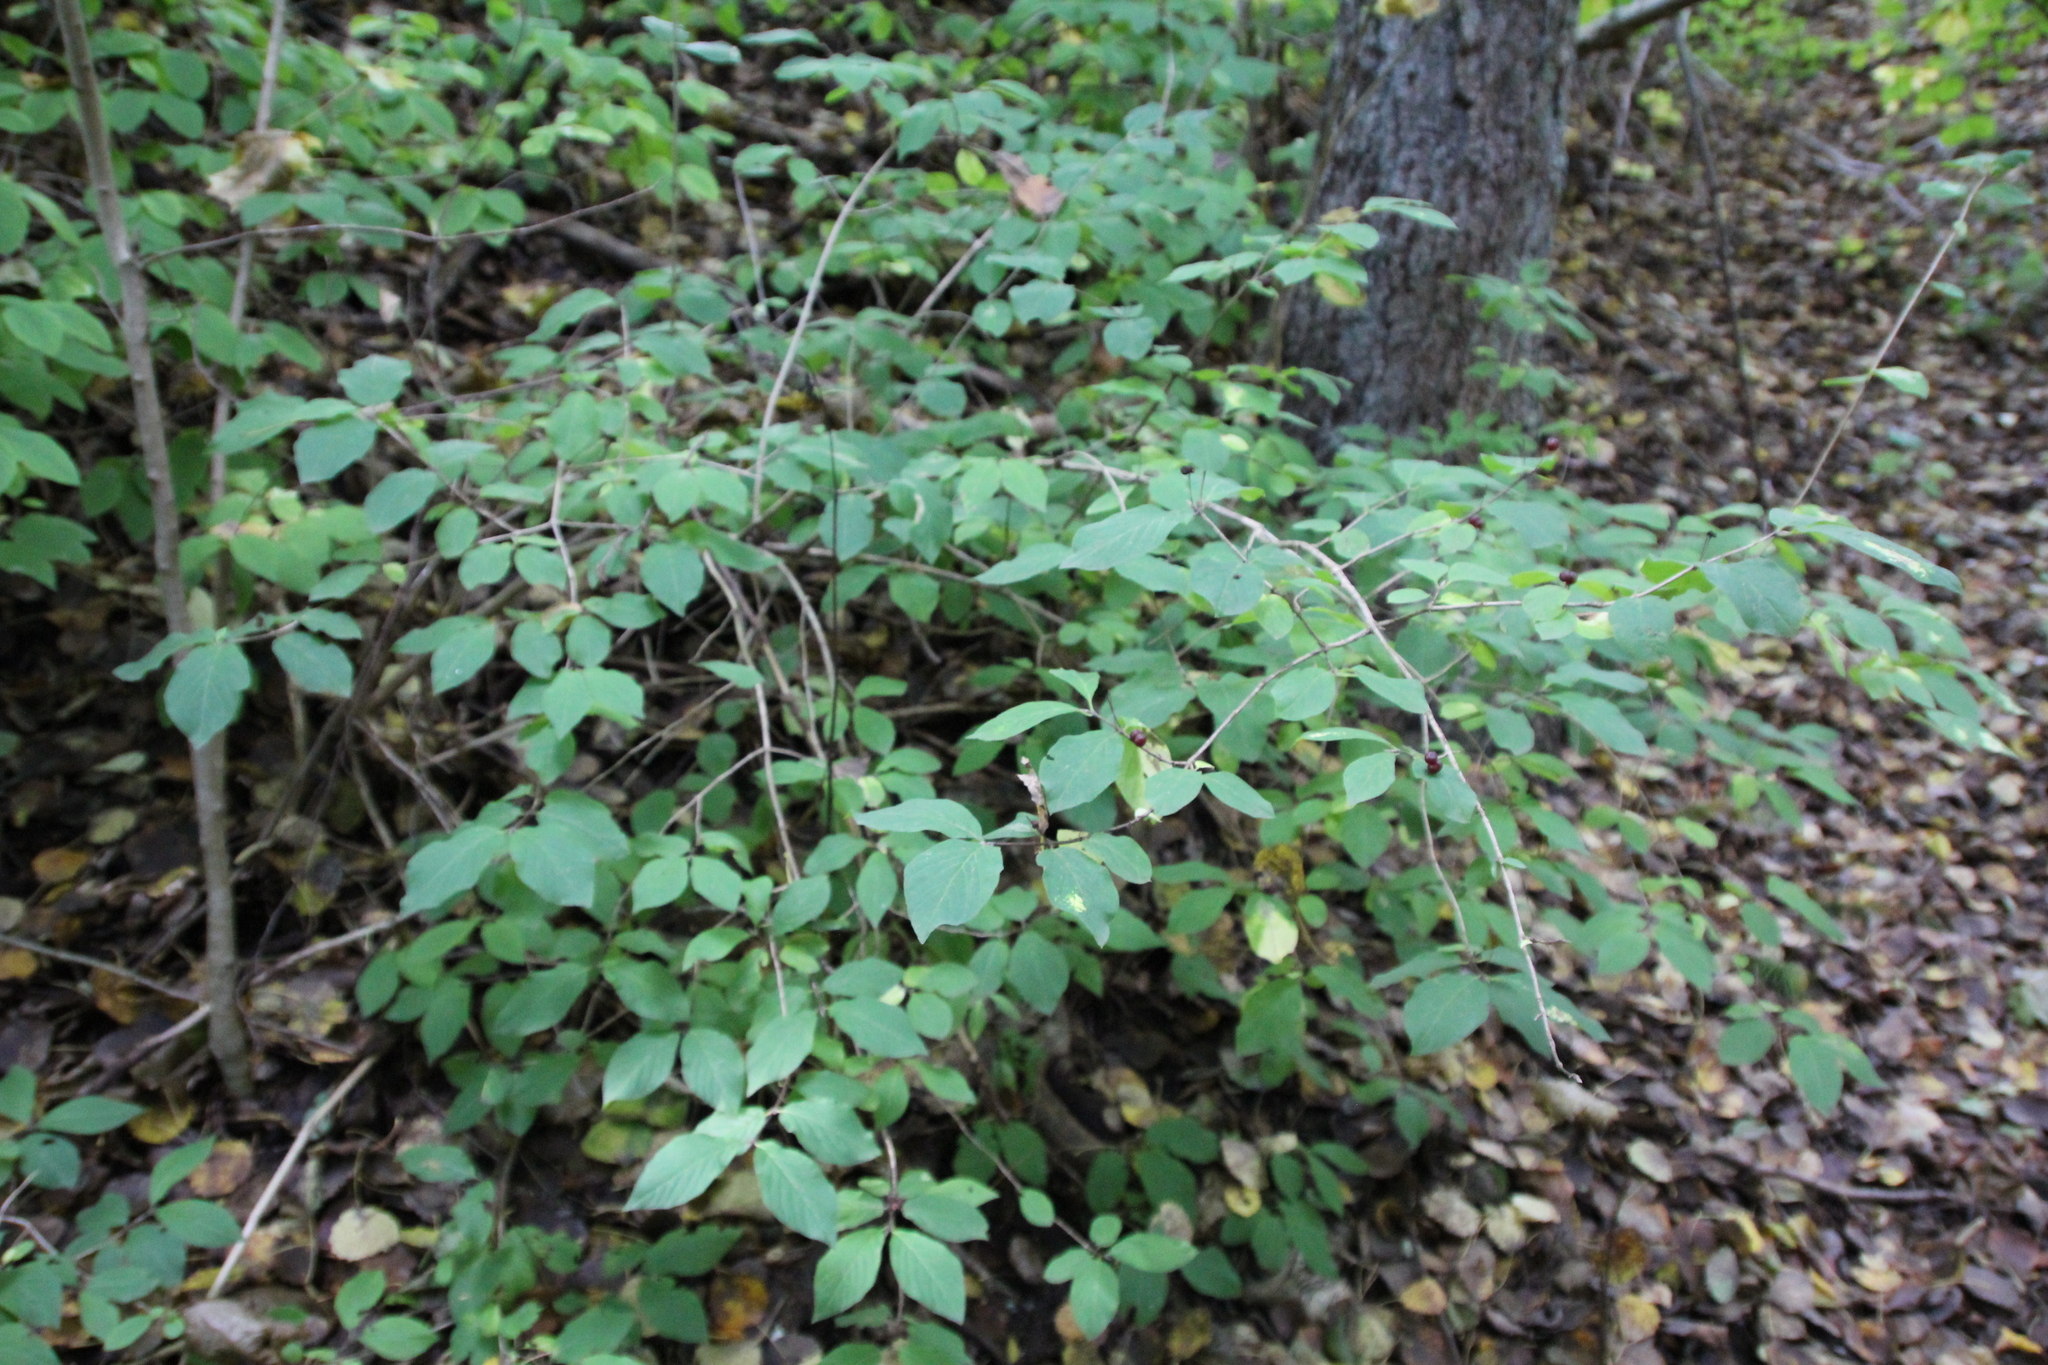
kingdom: Plantae
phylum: Tracheophyta
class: Magnoliopsida
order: Dipsacales
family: Caprifoliaceae
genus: Lonicera
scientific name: Lonicera xylosteum
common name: Fly honeysuckle
